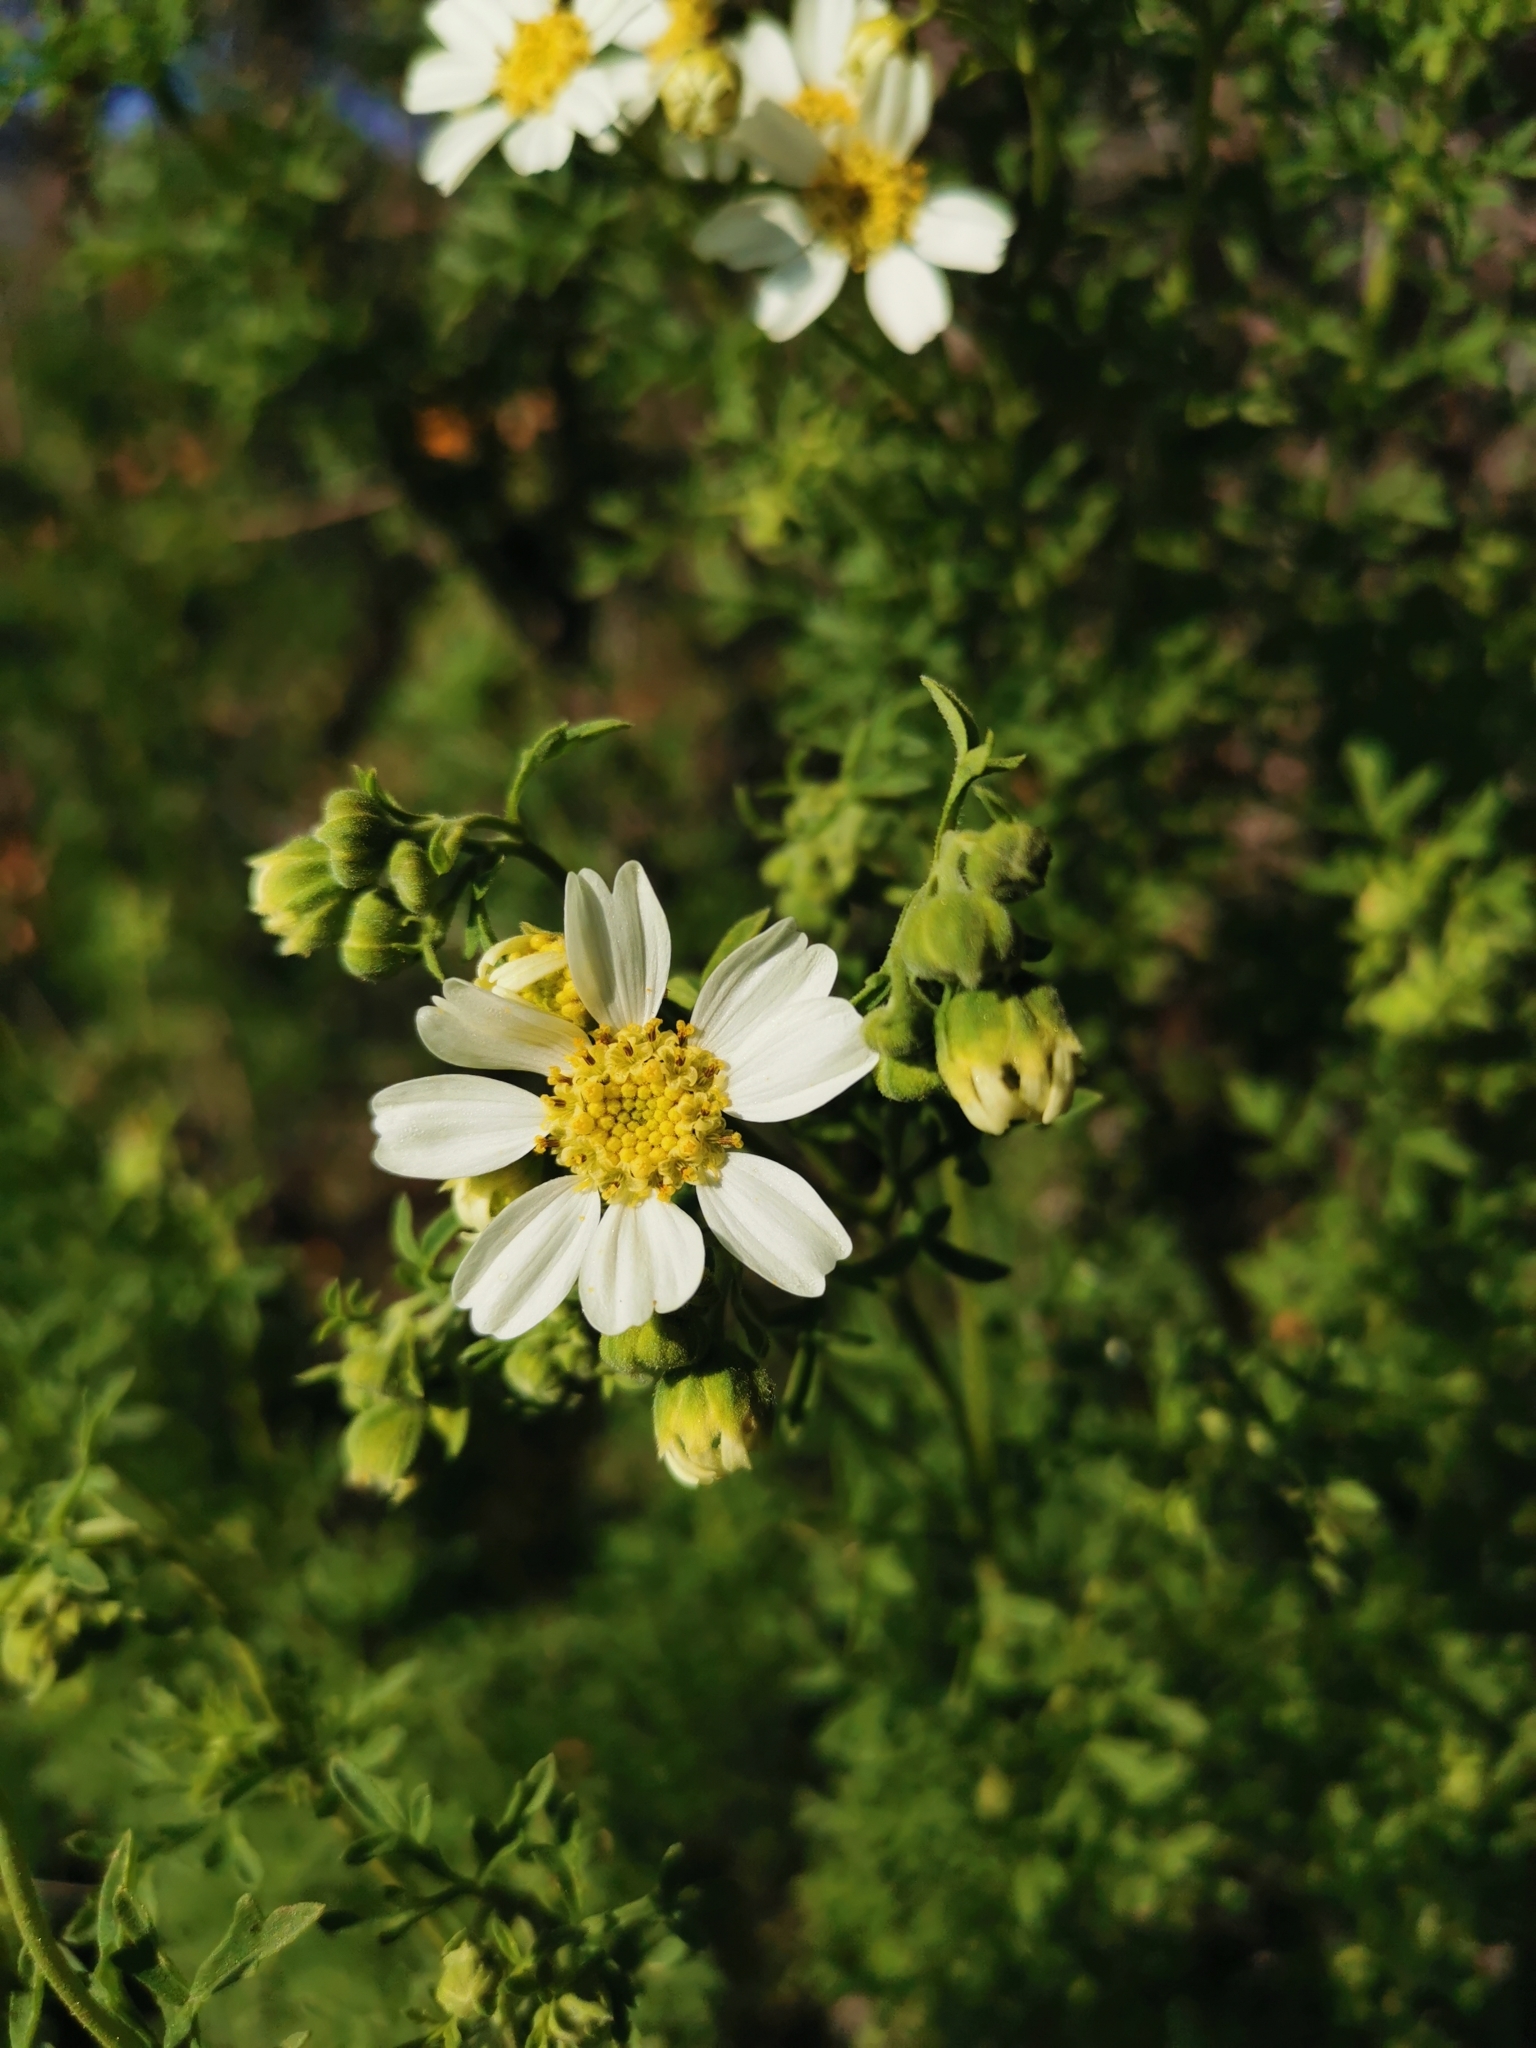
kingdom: Plantae
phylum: Tracheophyta
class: Magnoliopsida
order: Asterales
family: Asteraceae
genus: Bahia
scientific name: Bahia ambrosioides
